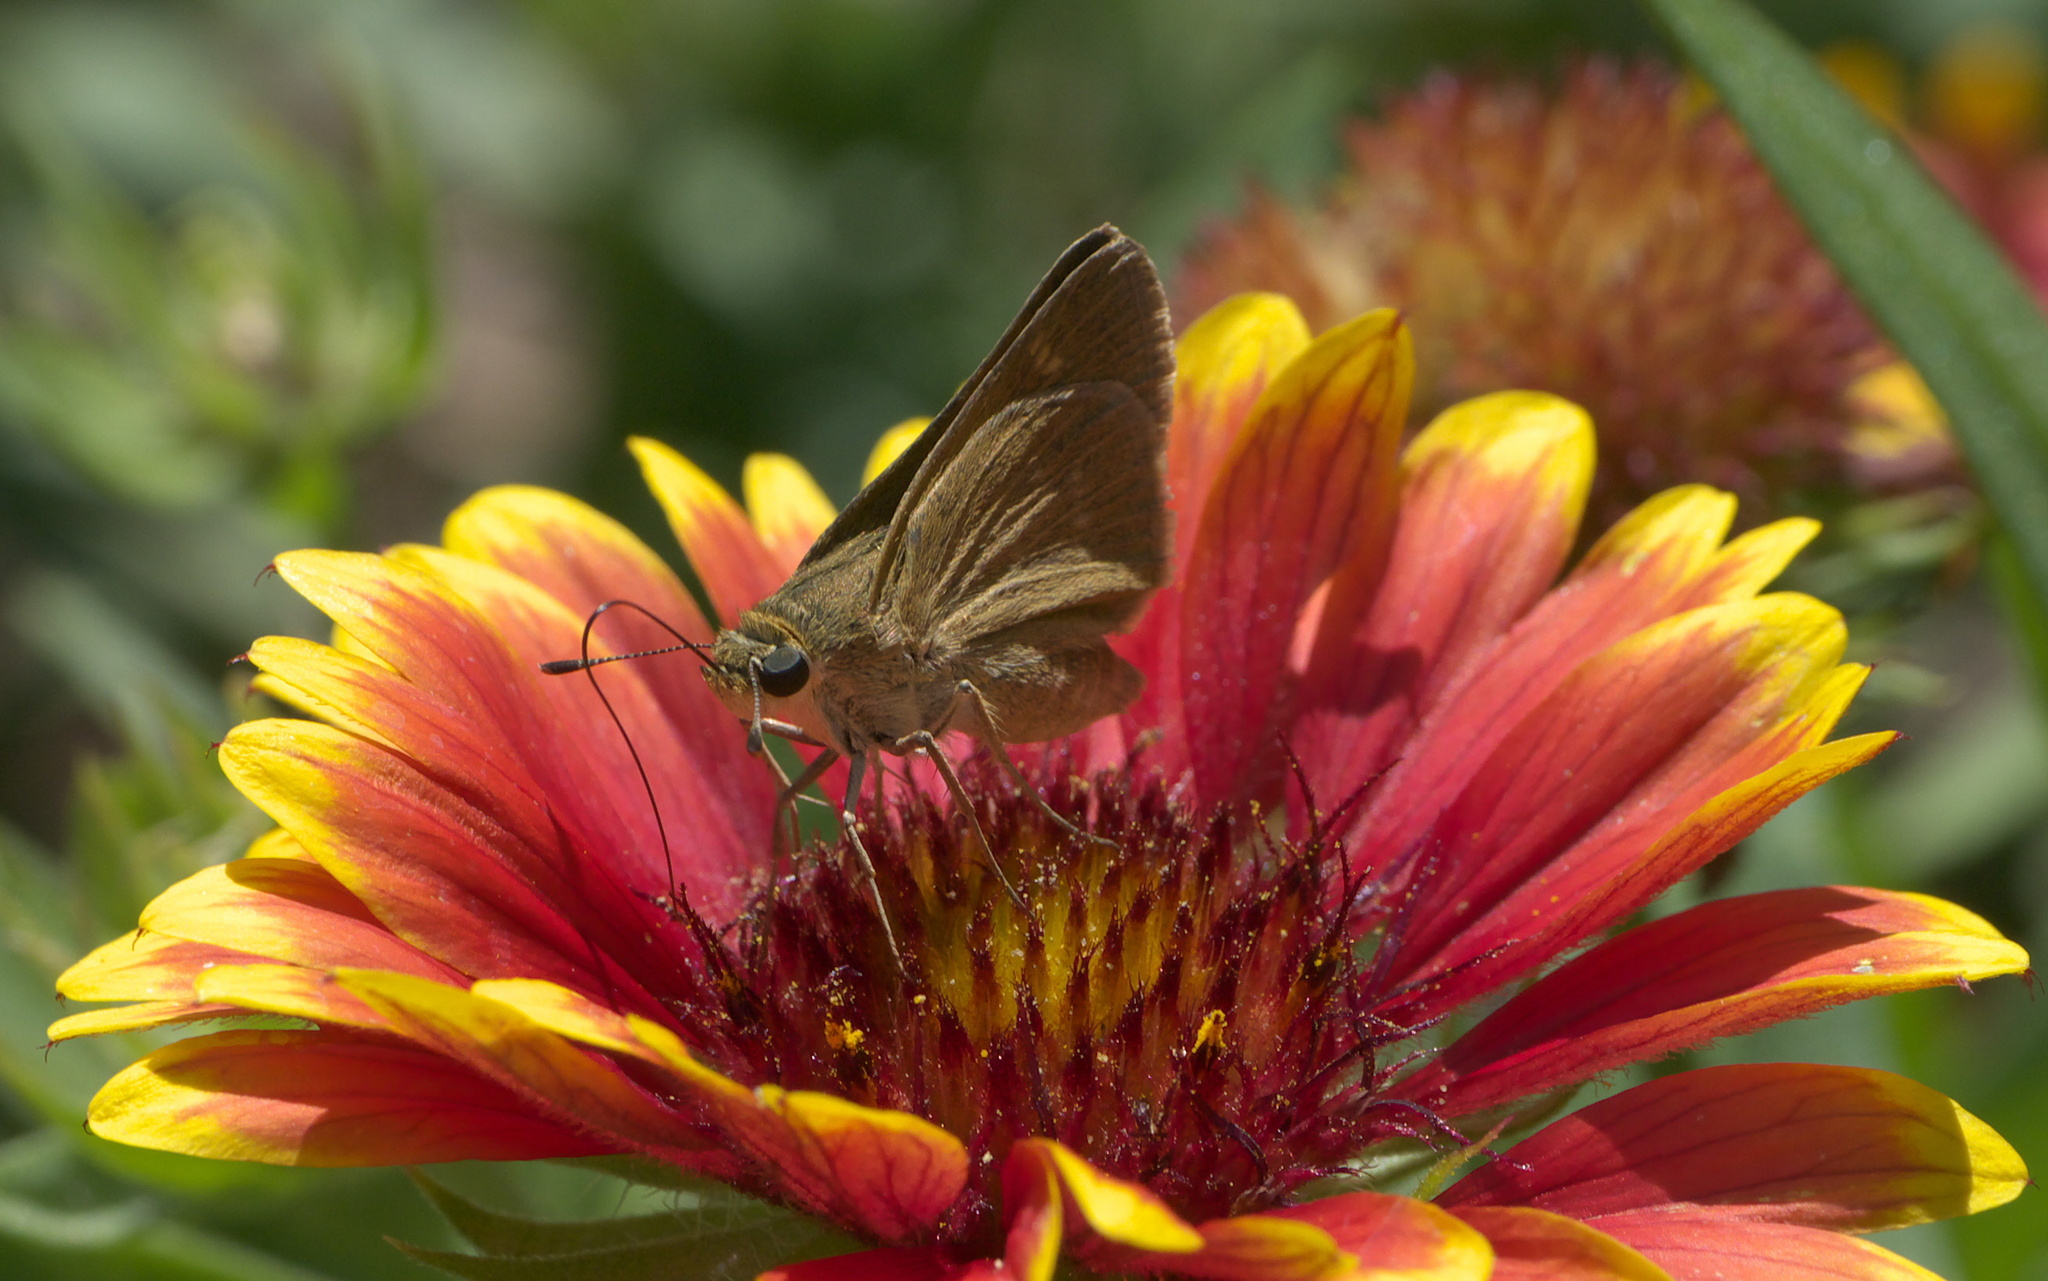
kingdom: Animalia
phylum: Arthropoda
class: Insecta
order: Lepidoptera
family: Hesperiidae
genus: Polites
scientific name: Polites egeremet
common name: Northern broken-dash
